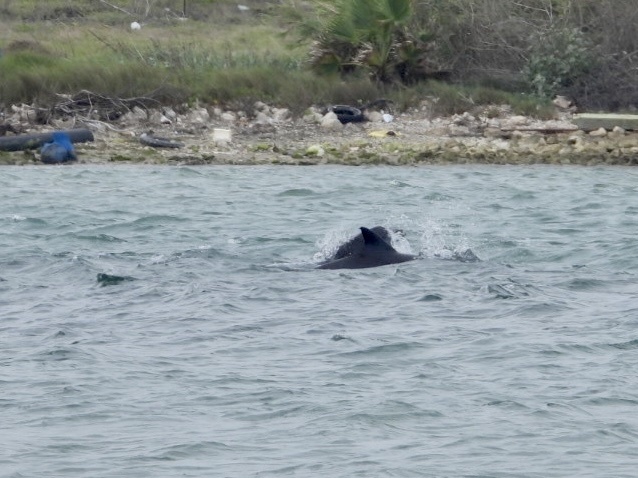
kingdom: Animalia
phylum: Chordata
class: Mammalia
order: Cetacea
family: Delphinidae
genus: Tursiops
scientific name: Tursiops truncatus
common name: Bottlenose dolphin
